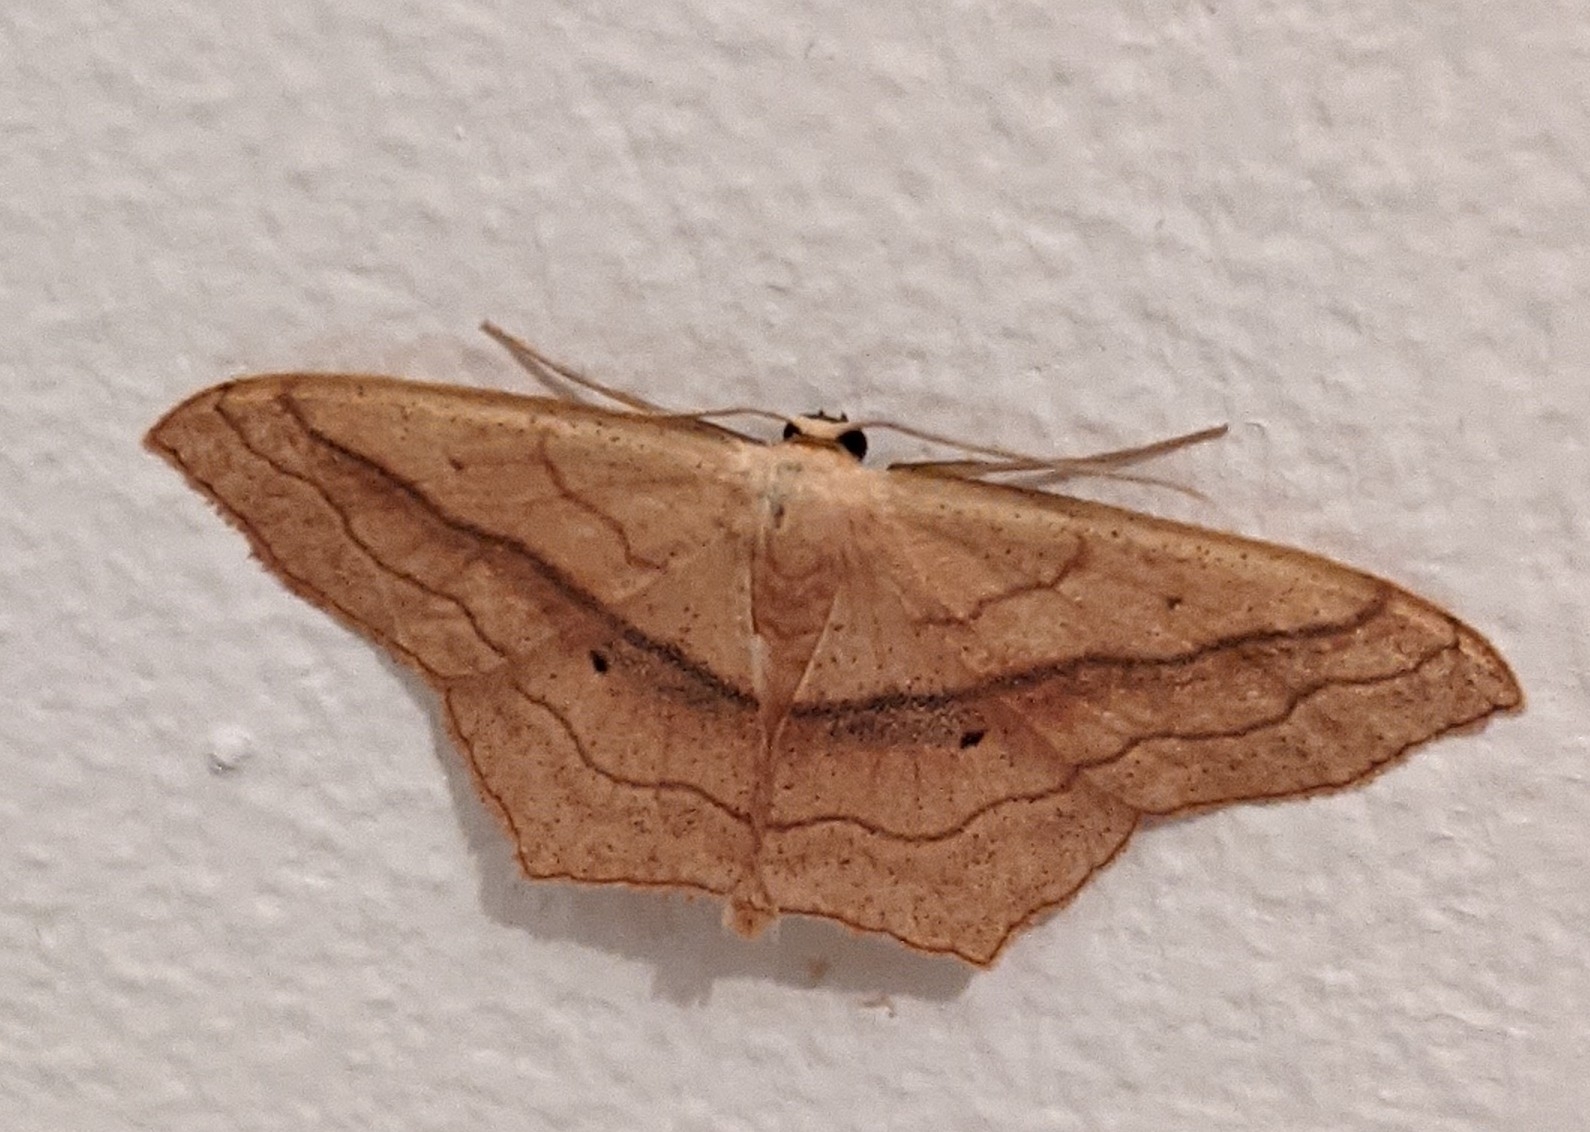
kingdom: Animalia
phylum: Arthropoda
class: Insecta
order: Lepidoptera
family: Geometridae
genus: Scopula
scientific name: Scopula imitaria
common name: Small blood-vein
